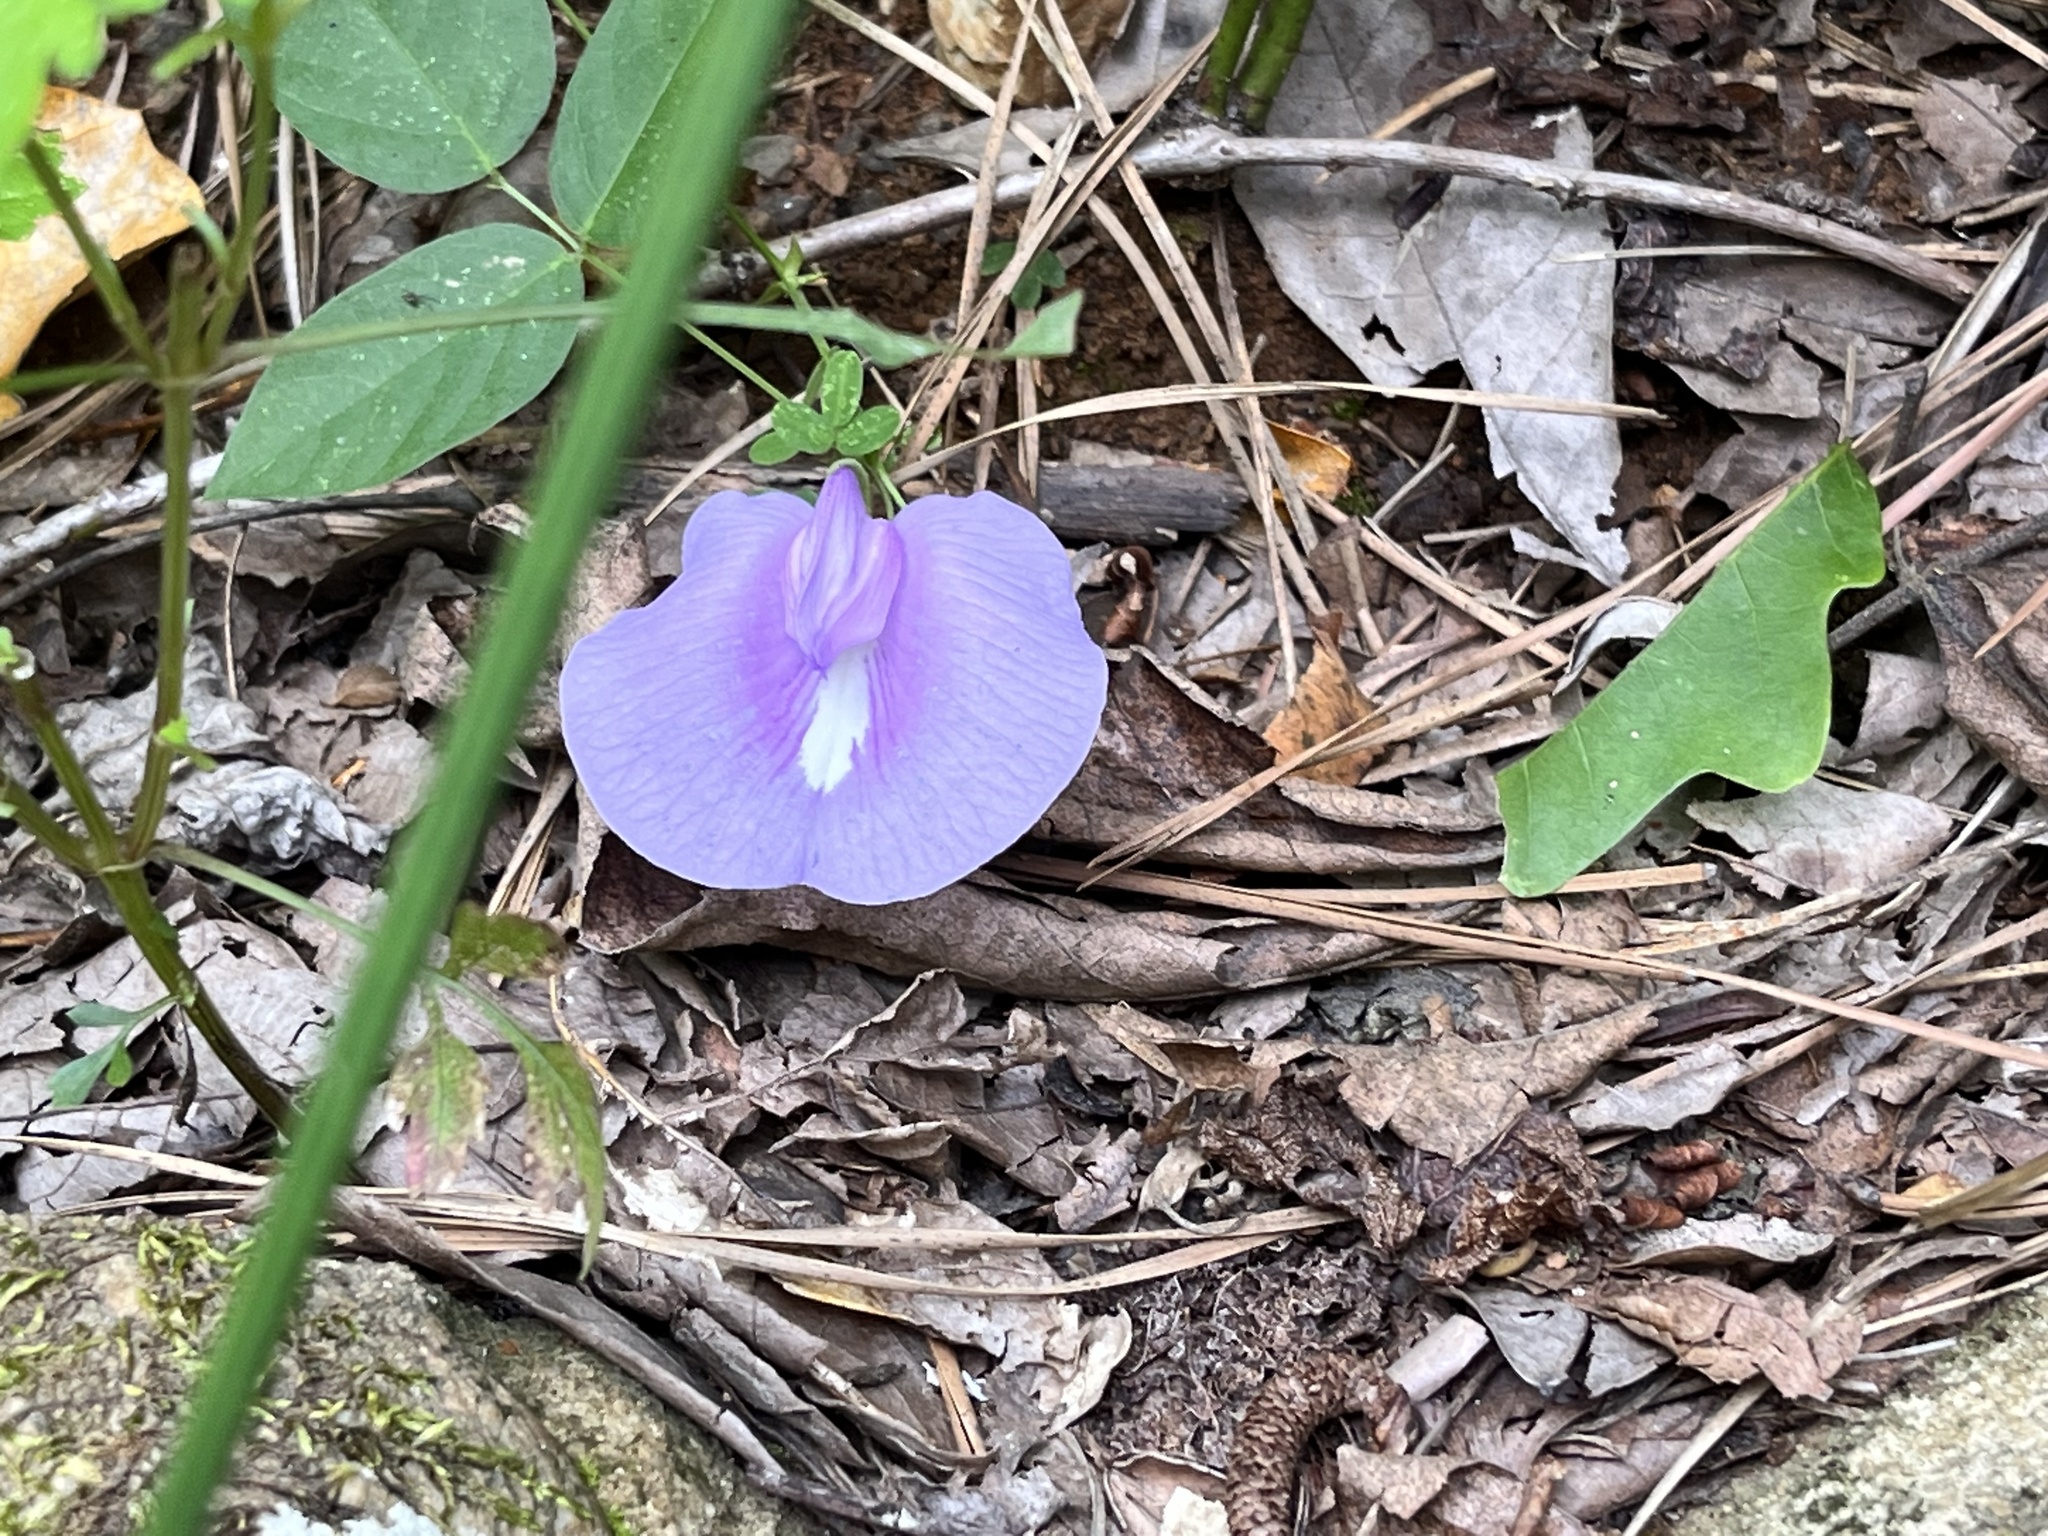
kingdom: Plantae
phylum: Tracheophyta
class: Magnoliopsida
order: Fabales
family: Fabaceae
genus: Centrosema
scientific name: Centrosema virginianum
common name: Butterfly-pea
